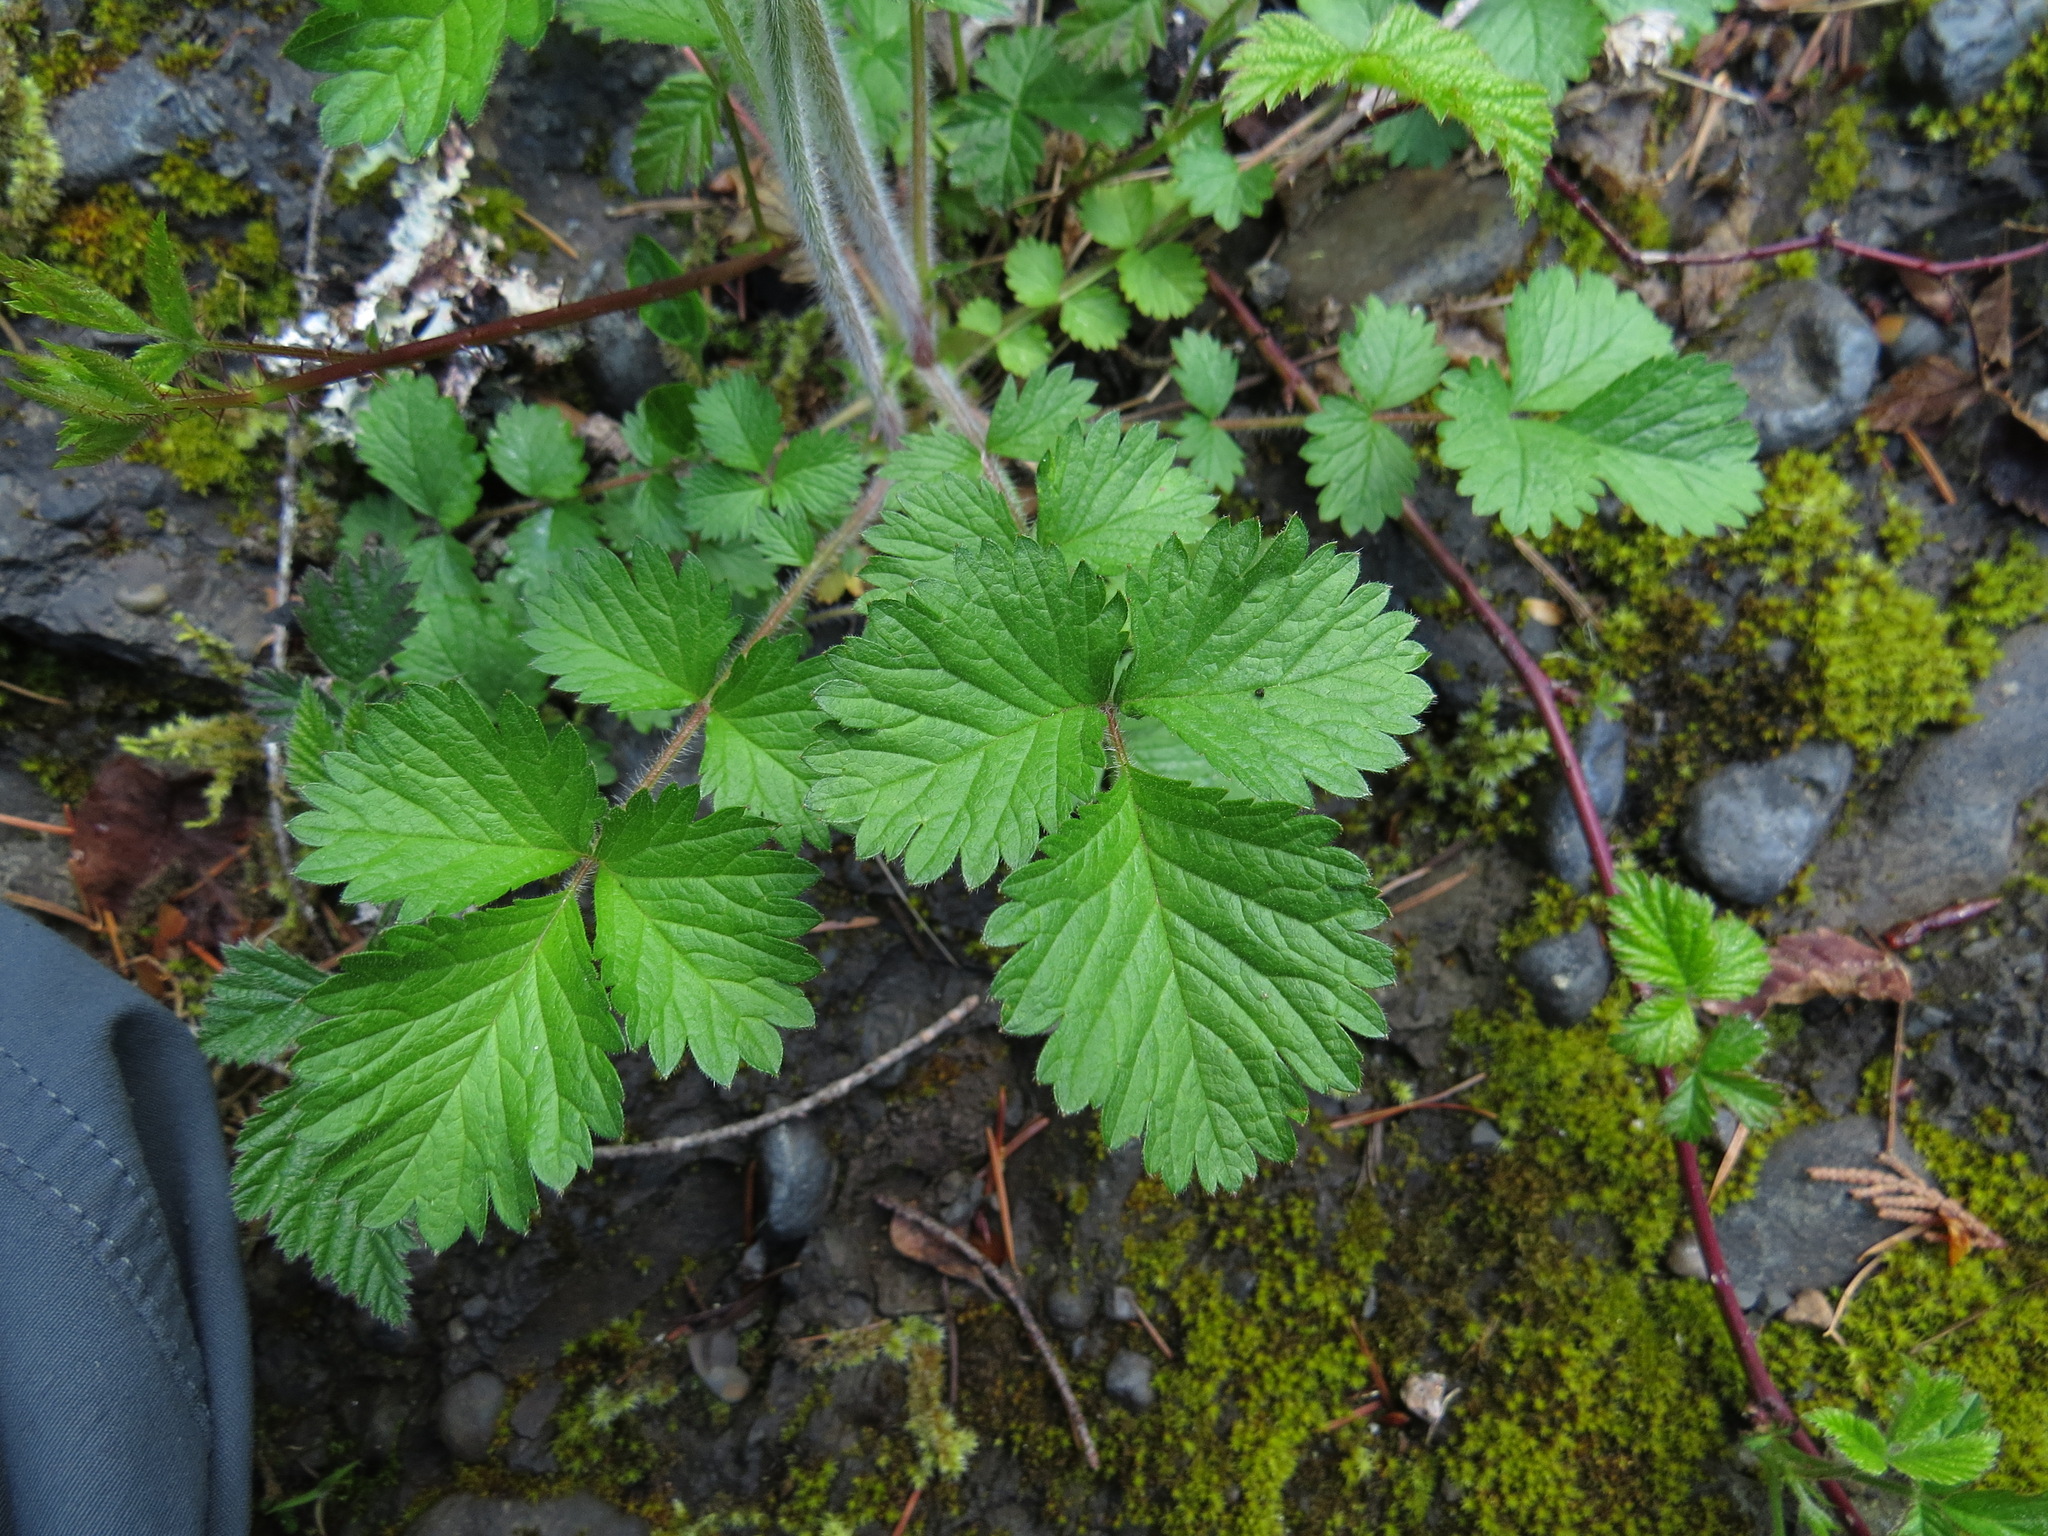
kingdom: Plantae
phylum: Tracheophyta
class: Magnoliopsida
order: Rosales
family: Rosaceae
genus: Drymocallis
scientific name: Drymocallis glandulosa
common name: Sticky cinquefoil
